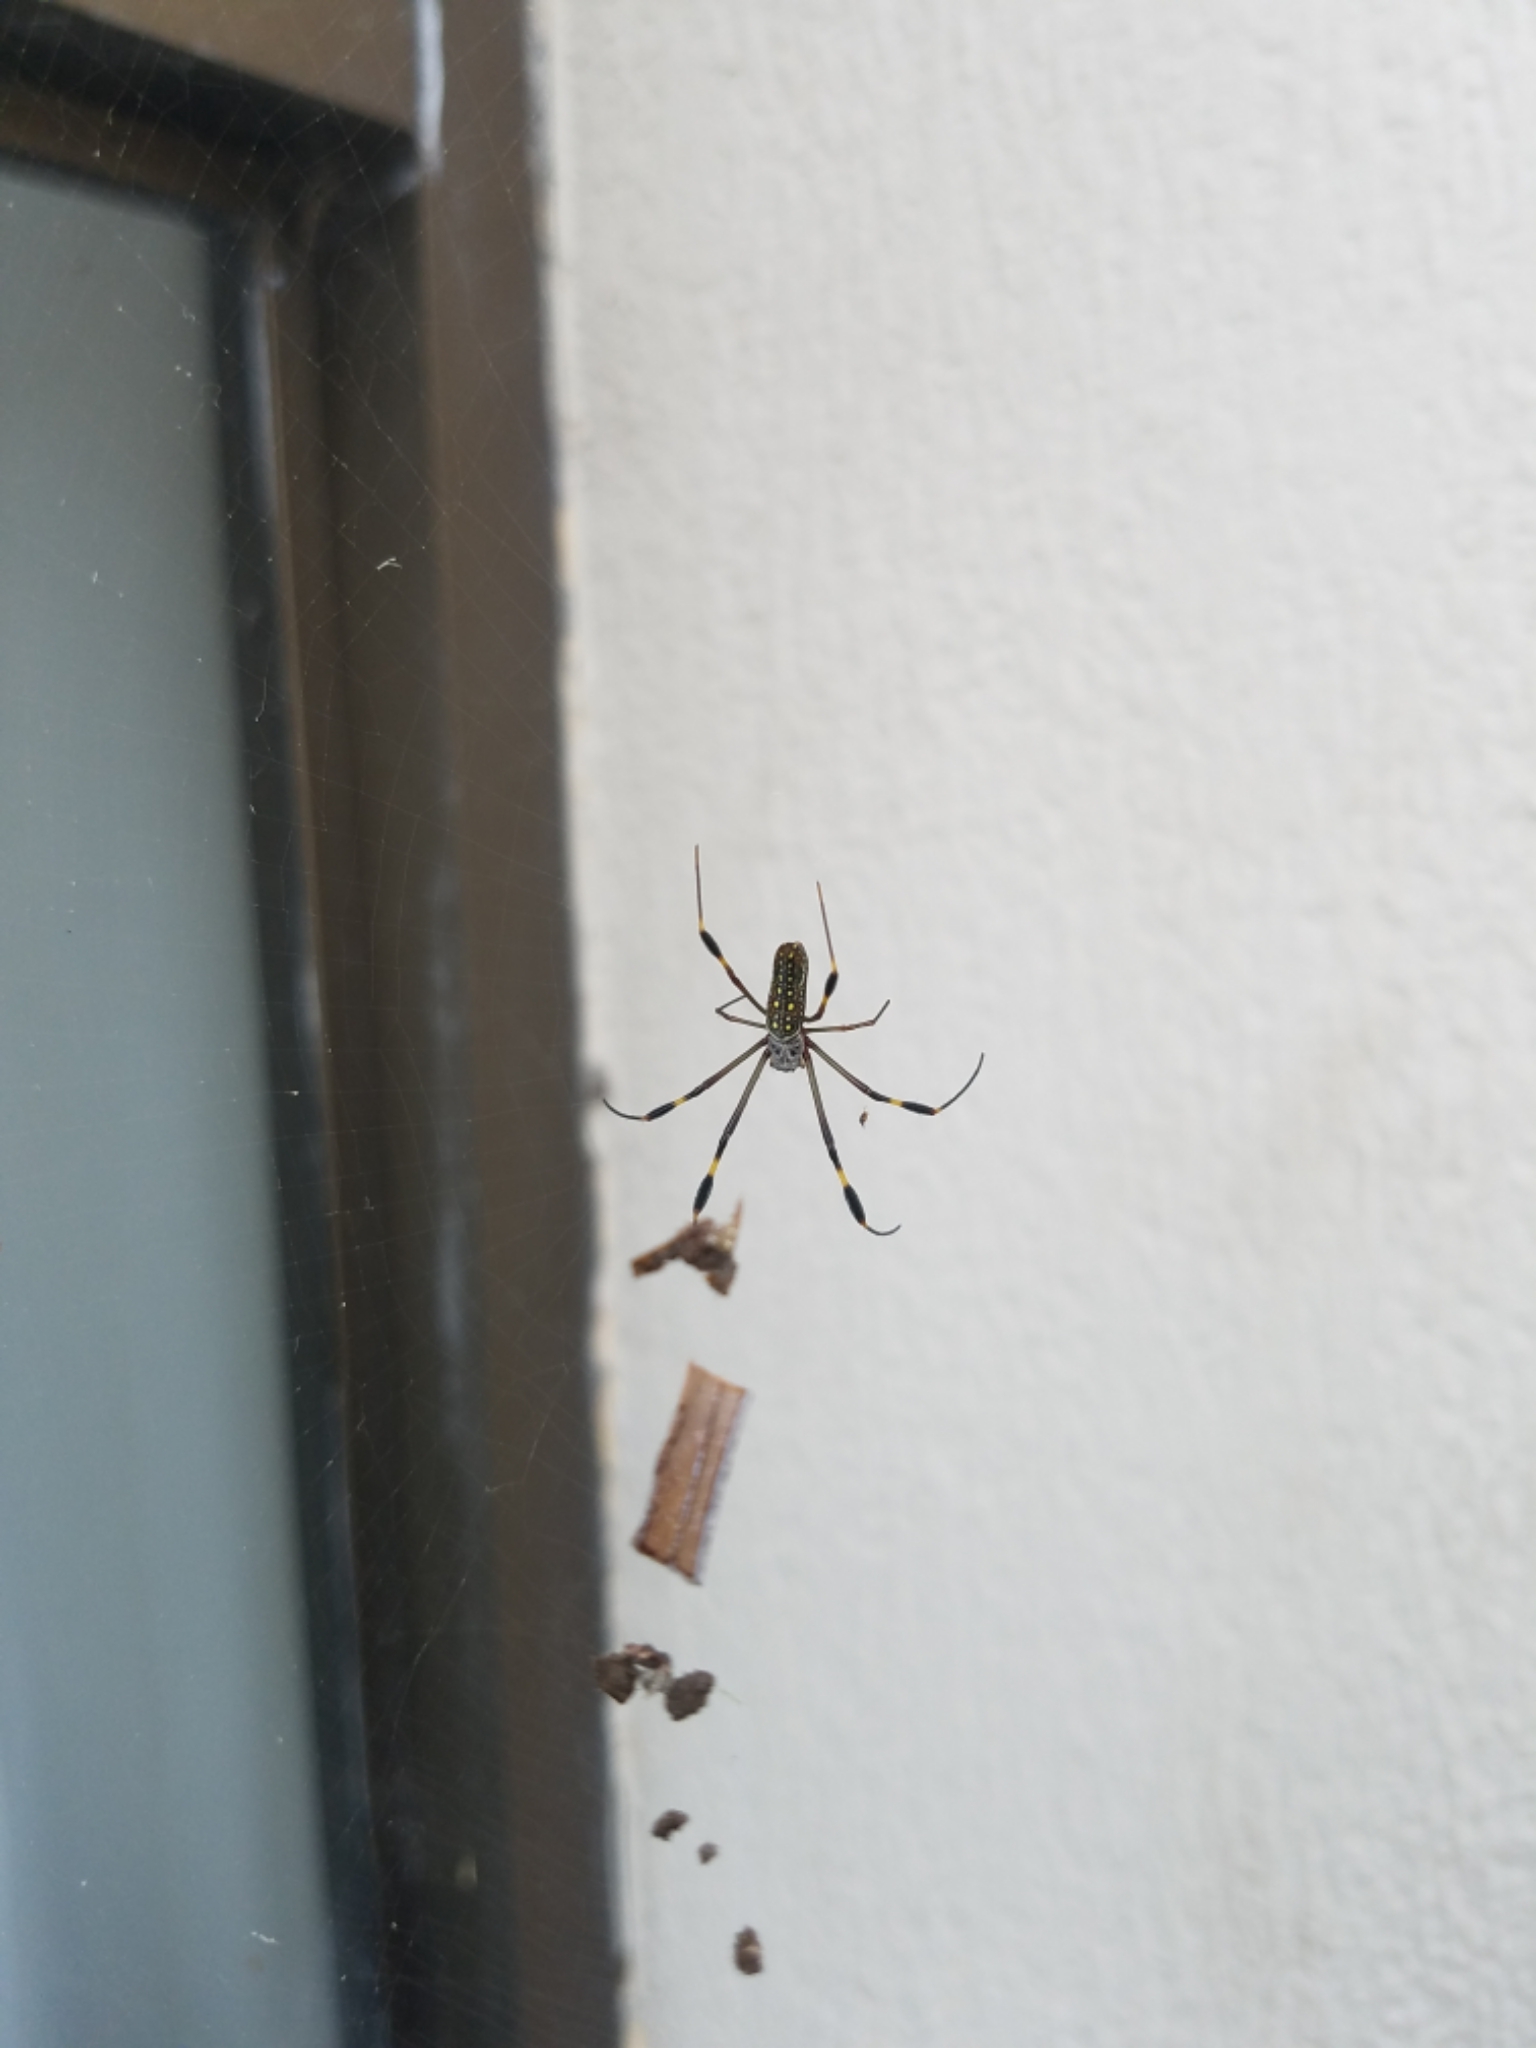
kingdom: Animalia
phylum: Arthropoda
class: Arachnida
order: Araneae
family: Araneidae
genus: Trichonephila
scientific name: Trichonephila clavipes
